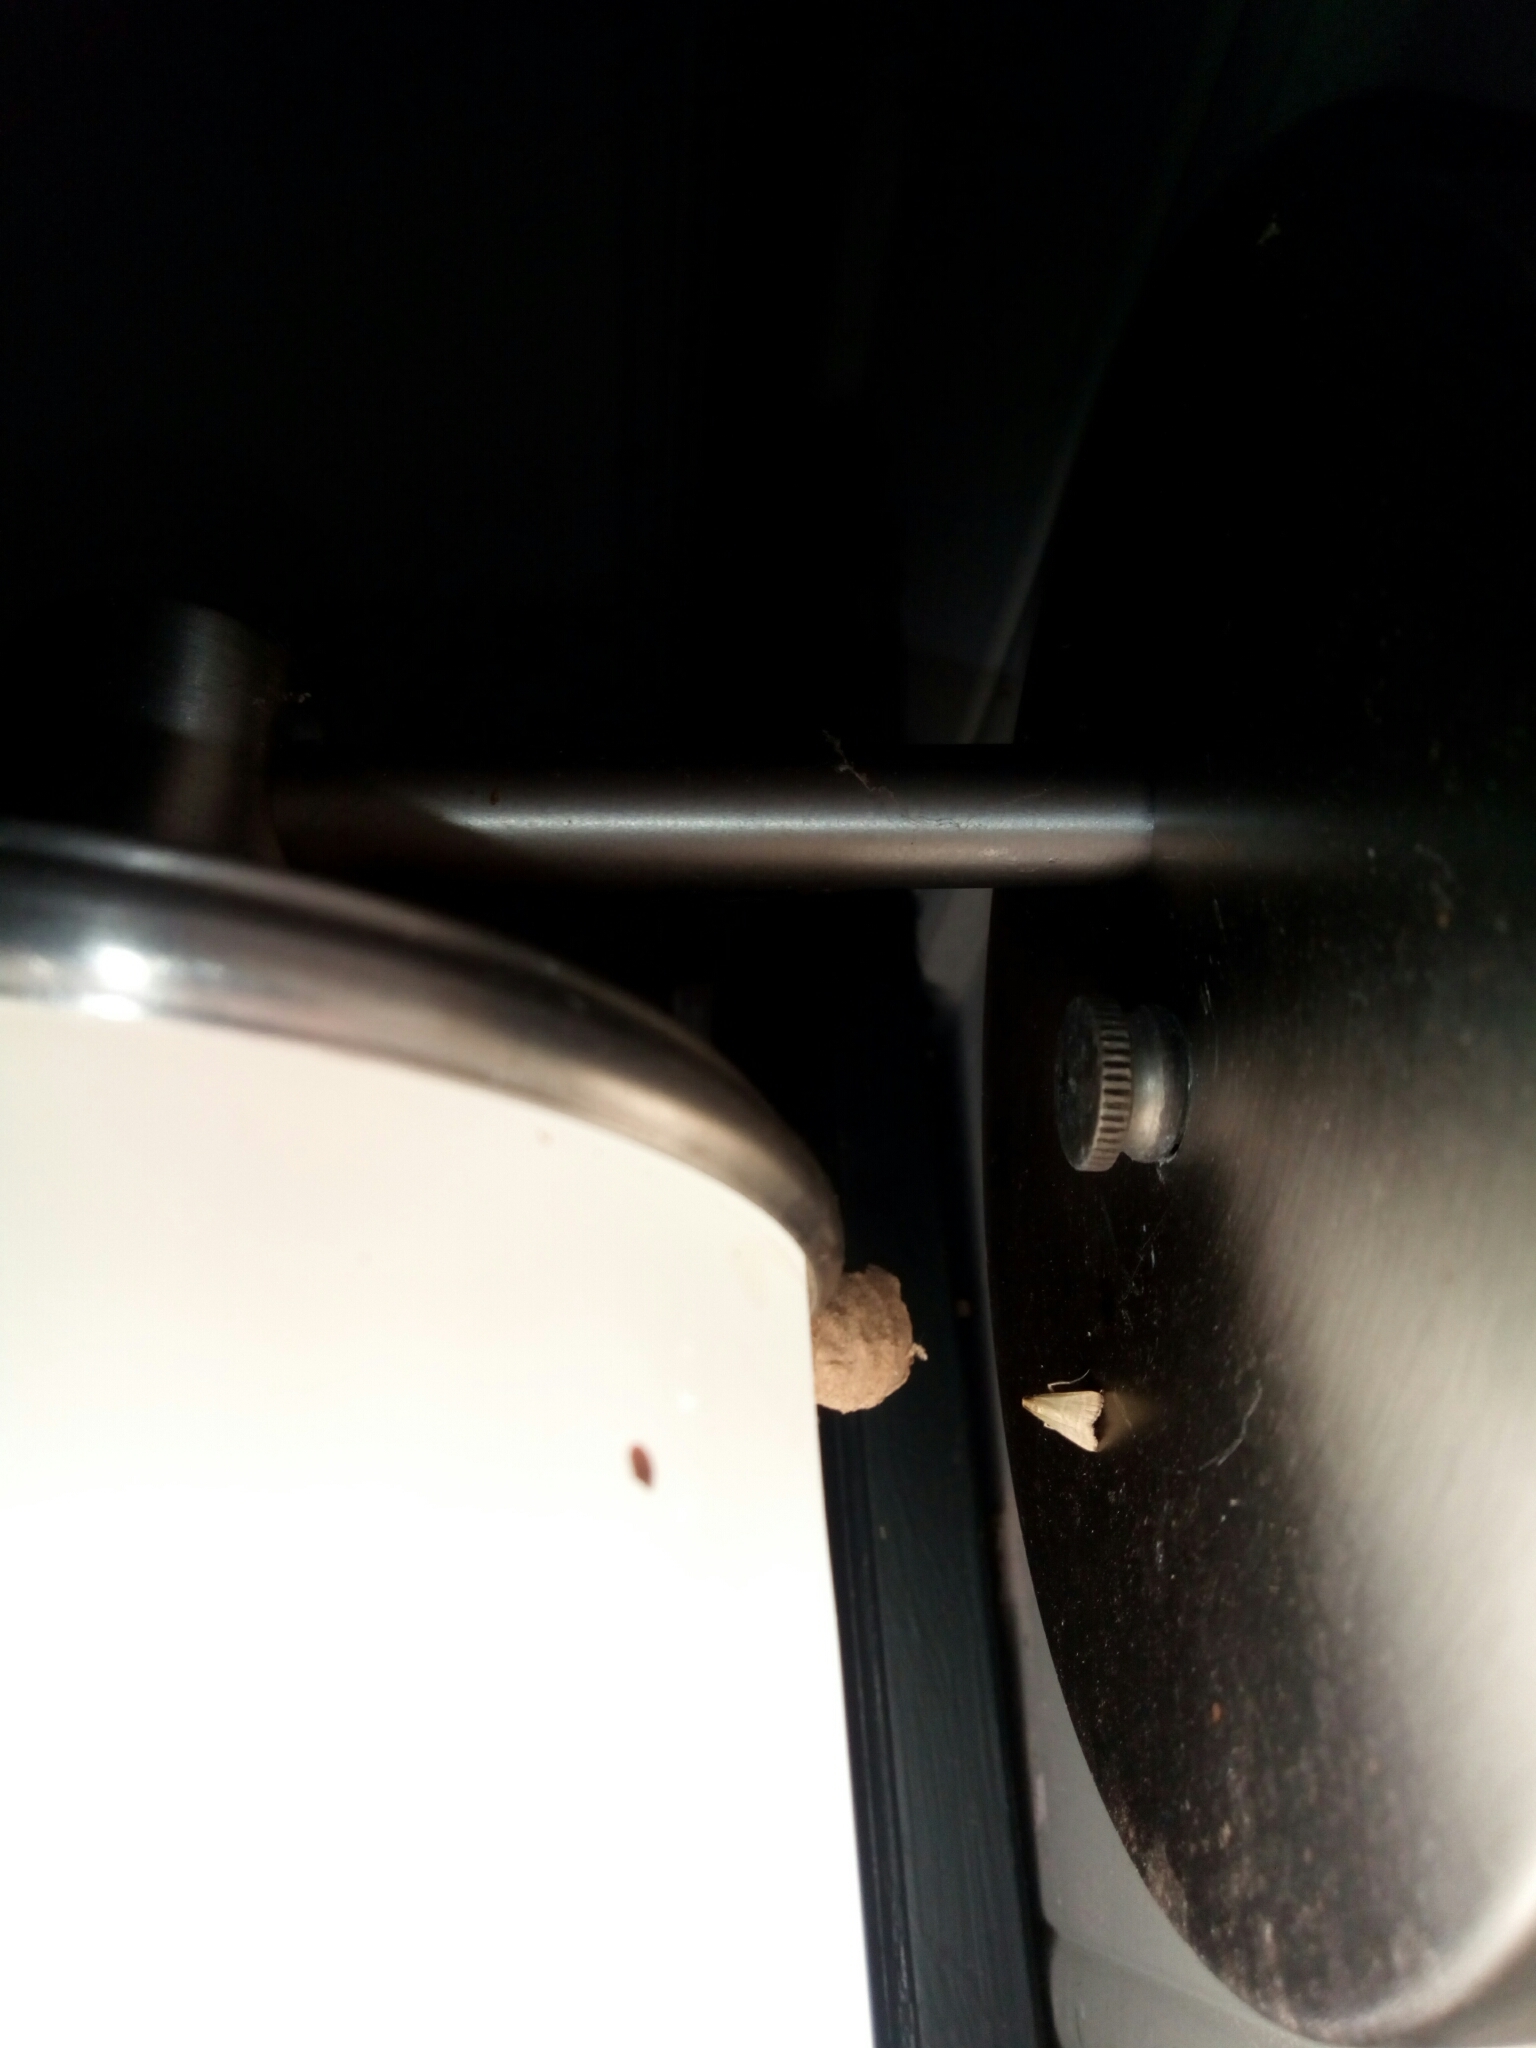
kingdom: Animalia
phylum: Arthropoda
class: Insecta
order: Lepidoptera
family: Pyralidae
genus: Arta
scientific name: Arta olivalis
